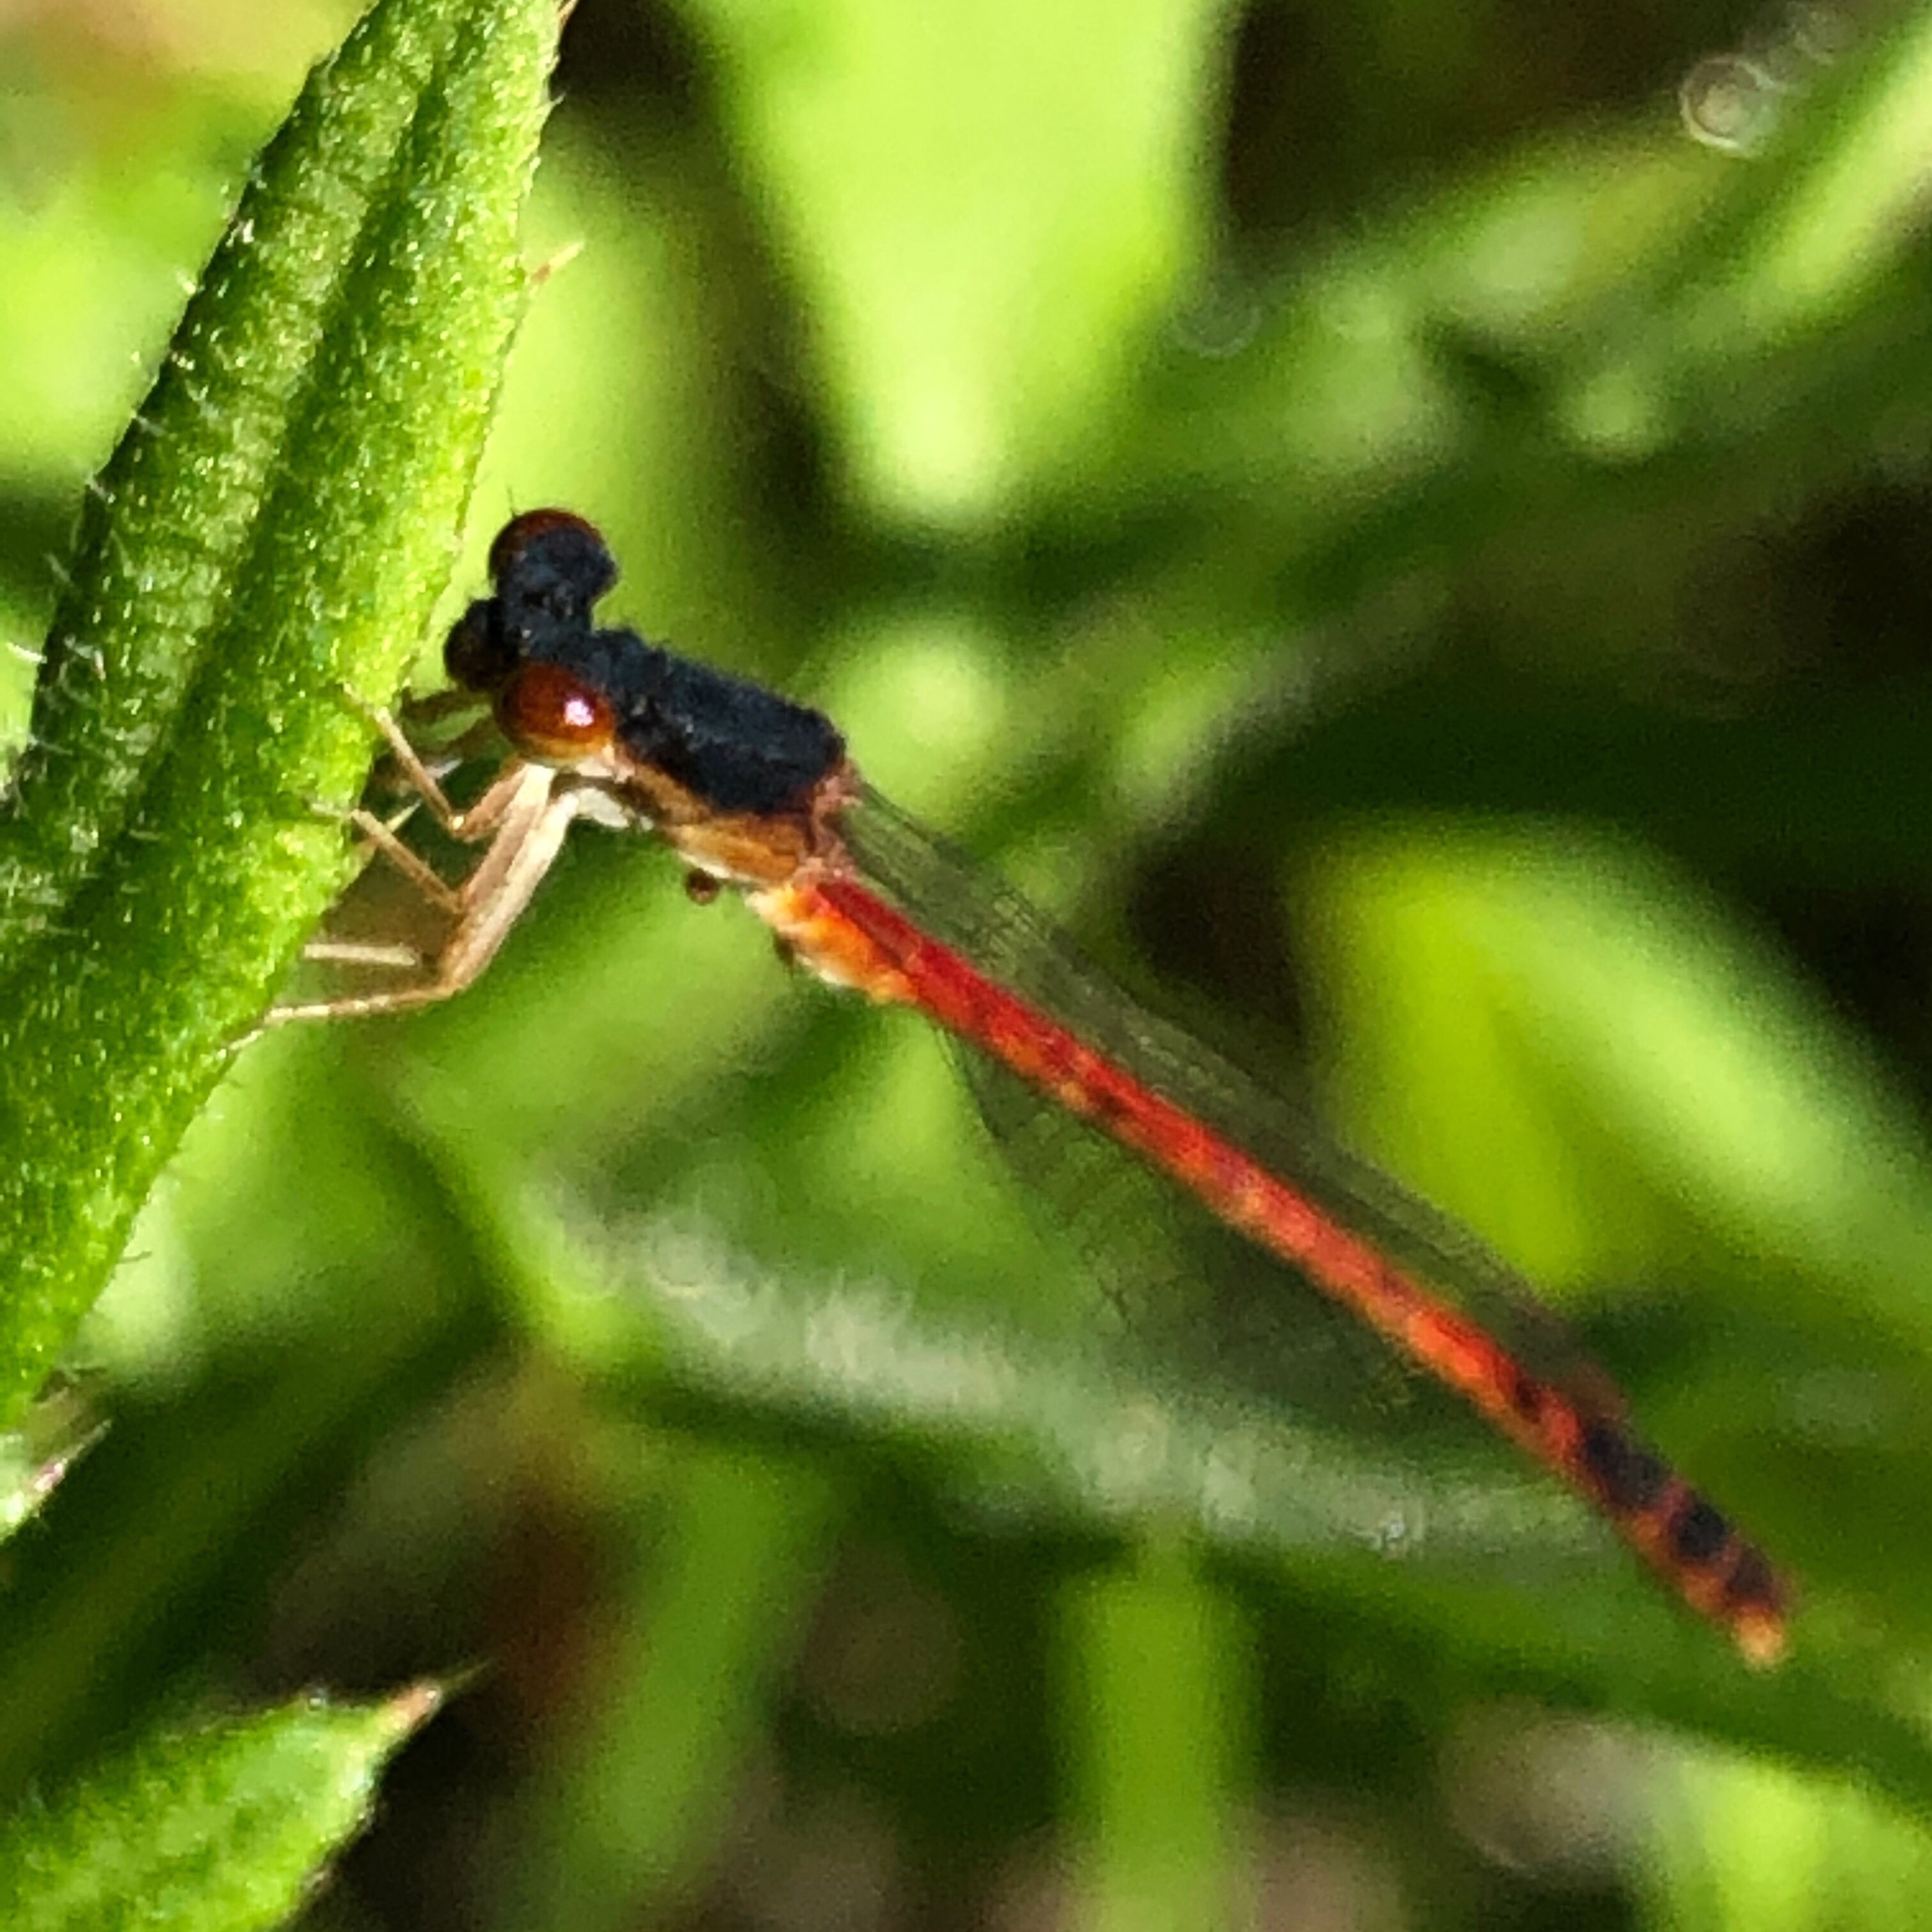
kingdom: Animalia
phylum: Arthropoda
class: Insecta
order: Odonata
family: Coenagrionidae
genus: Amphiagrion
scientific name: Amphiagrion saucium
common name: Eastern red damsel
